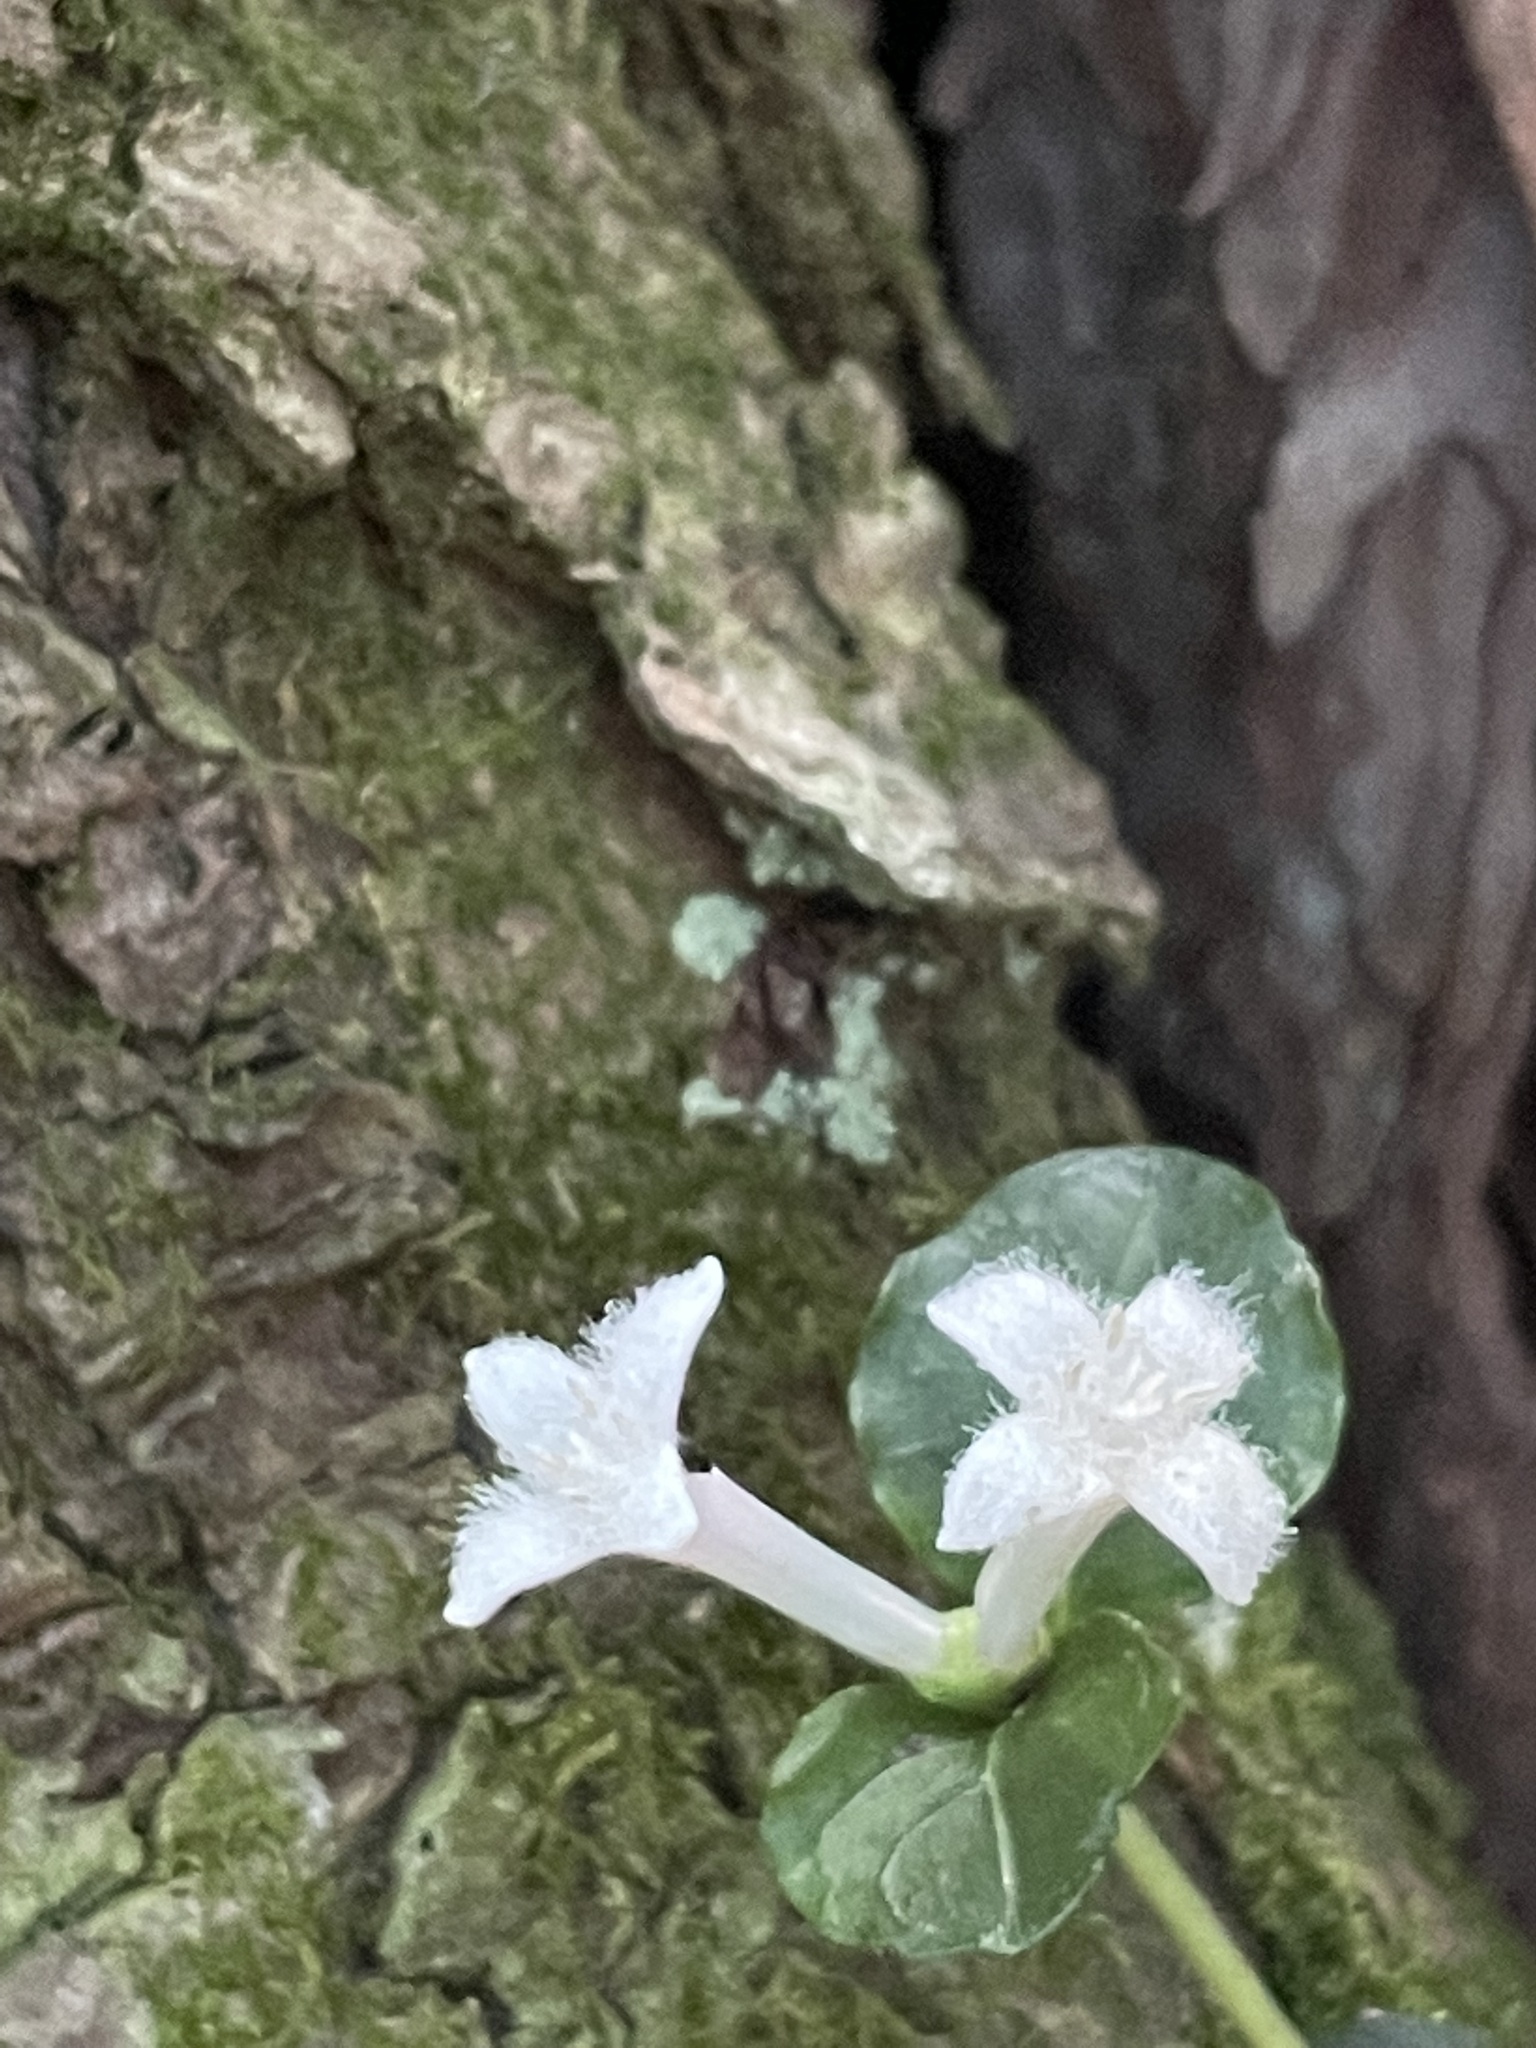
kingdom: Plantae
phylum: Tracheophyta
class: Magnoliopsida
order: Gentianales
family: Rubiaceae
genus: Mitchella
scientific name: Mitchella repens
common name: Partridge-berry
